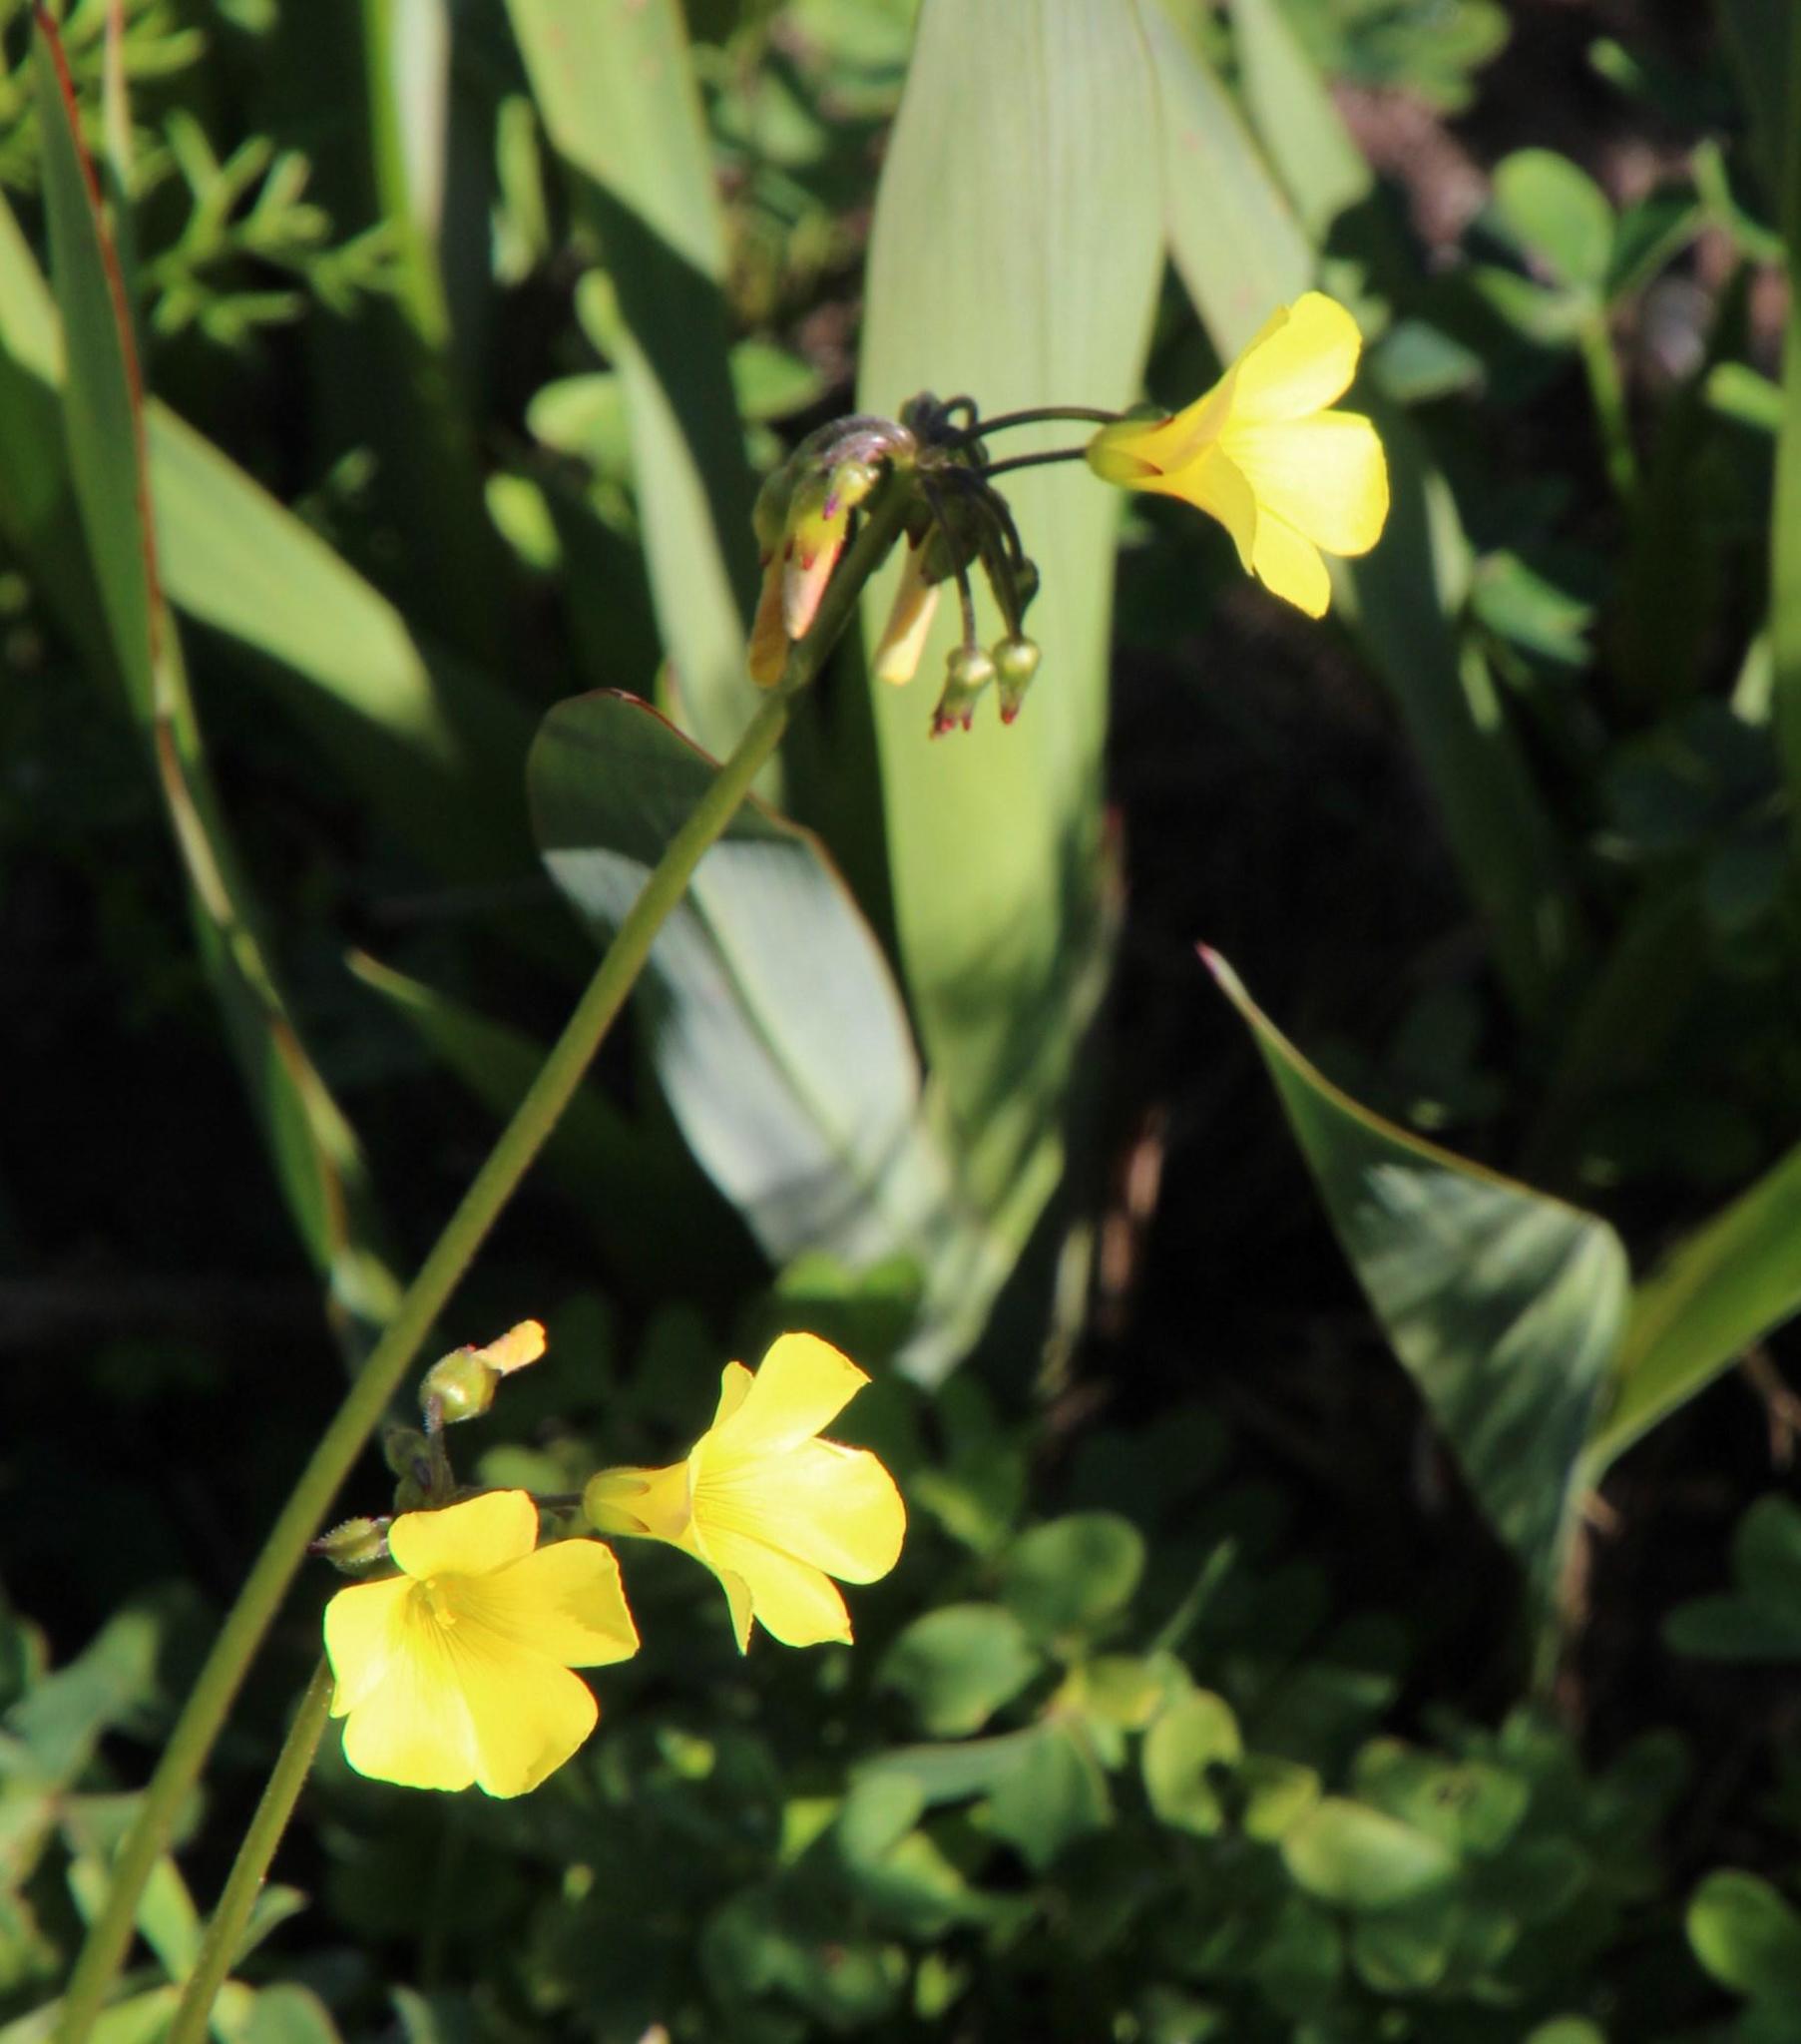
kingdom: Plantae
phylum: Tracheophyta
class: Magnoliopsida
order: Oxalidales
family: Oxalidaceae
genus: Oxalis
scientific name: Oxalis pes-caprae
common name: Bermuda-buttercup
